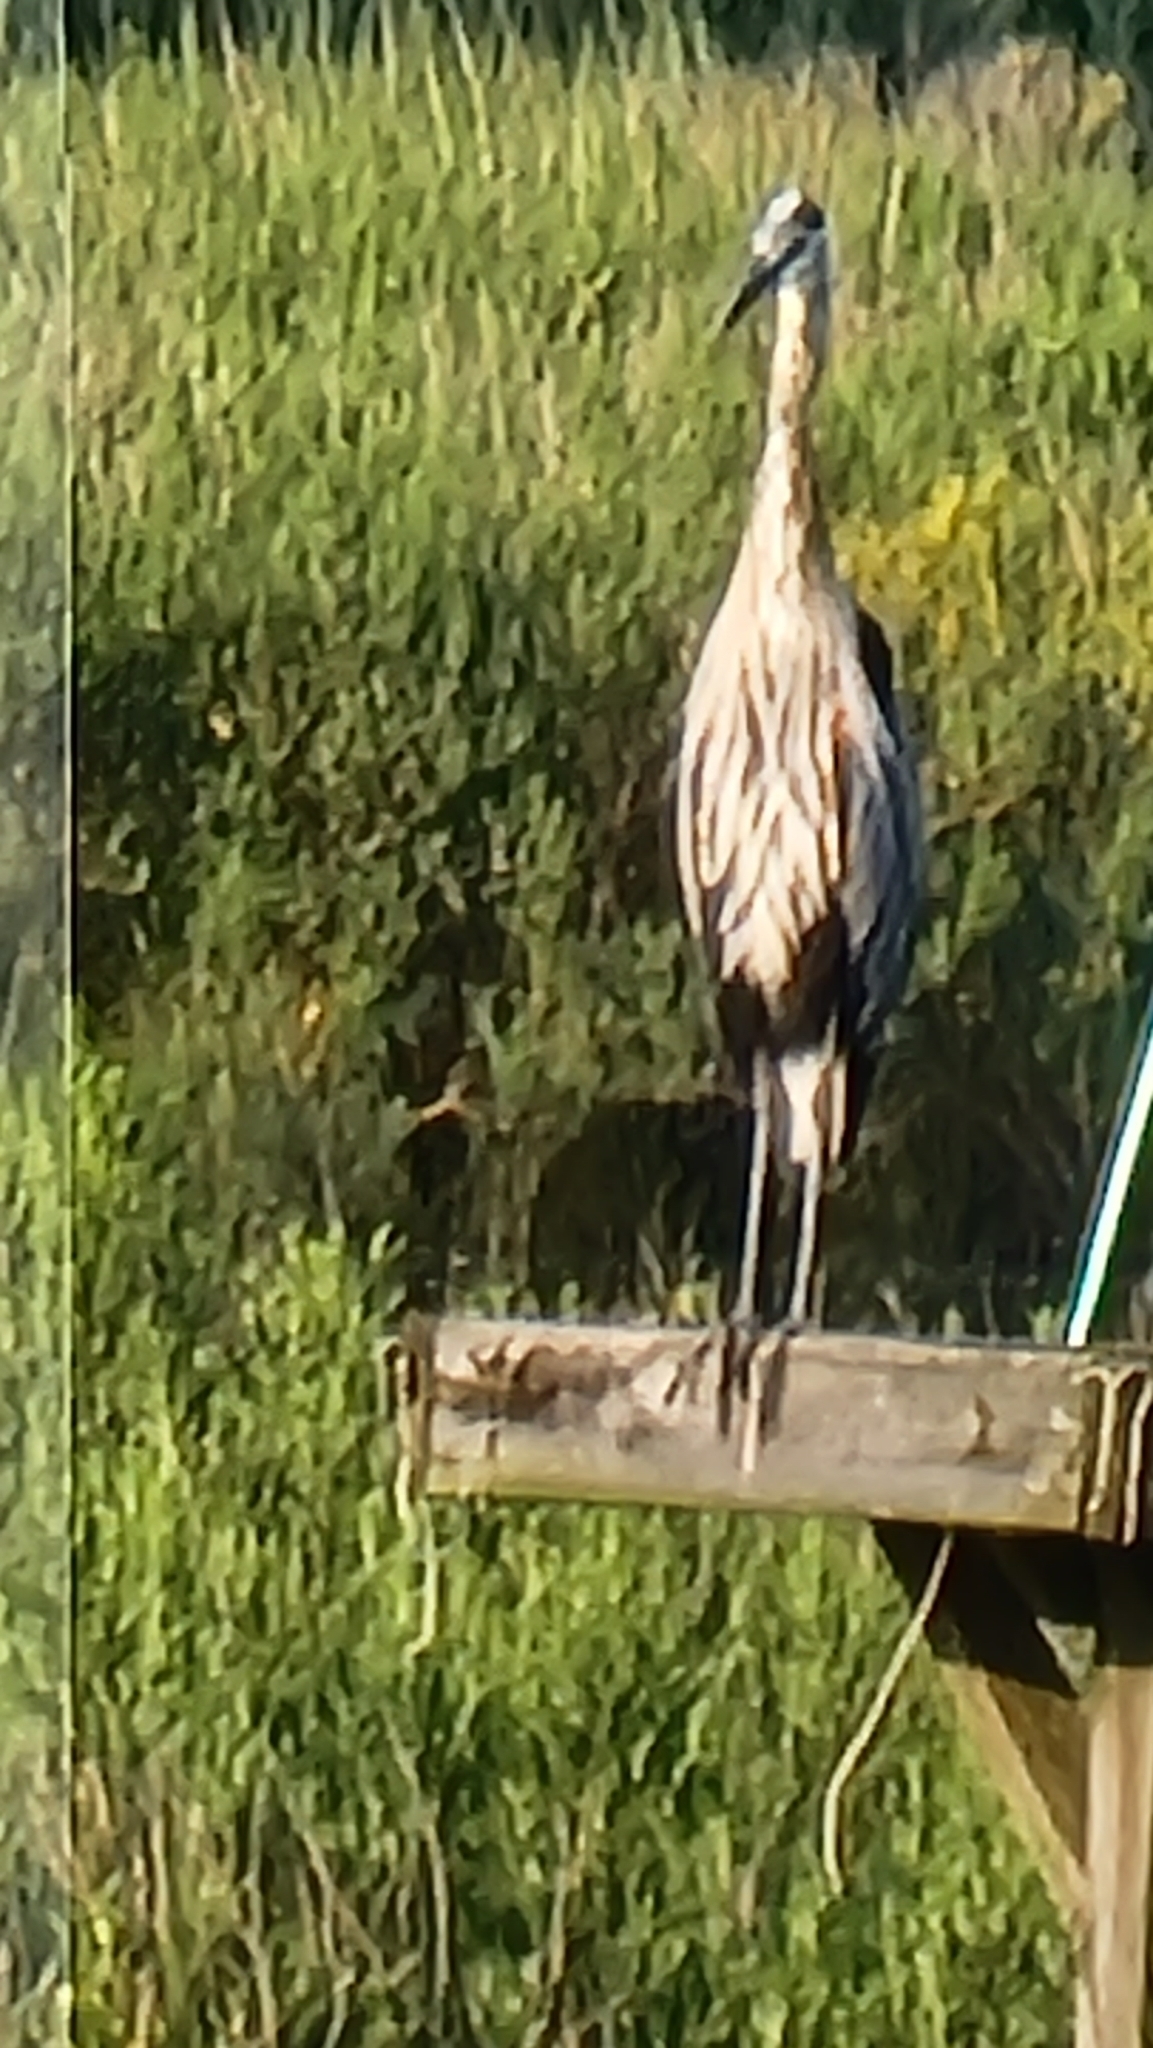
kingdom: Animalia
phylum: Chordata
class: Aves
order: Pelecaniformes
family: Ardeidae
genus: Ardea
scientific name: Ardea herodias
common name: Great blue heron
